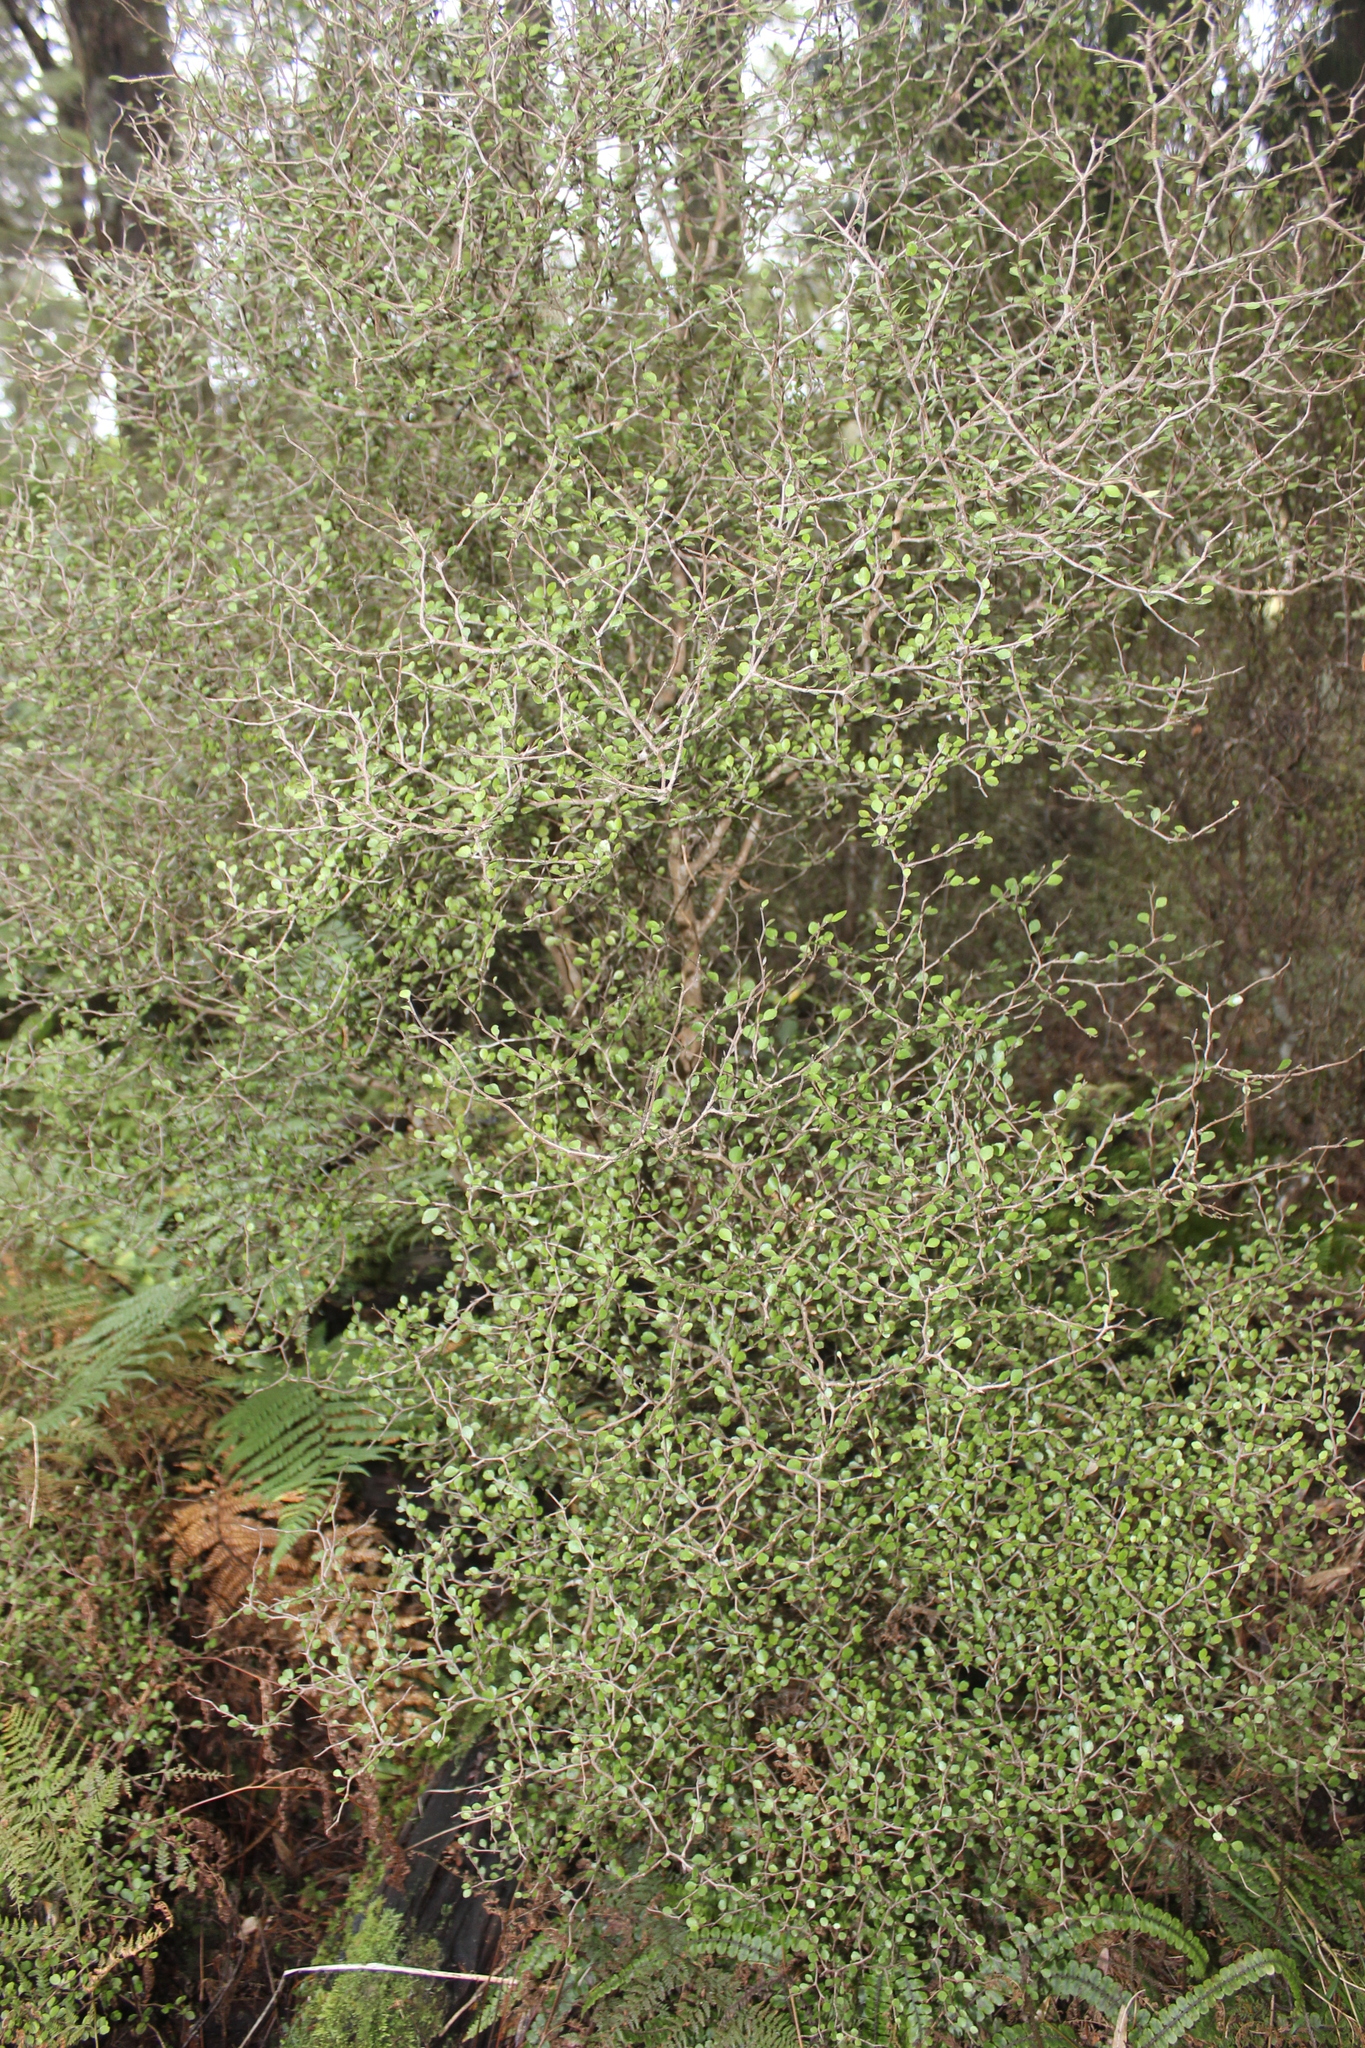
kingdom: Plantae
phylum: Tracheophyta
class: Magnoliopsida
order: Apiales
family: Araliaceae
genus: Raukaua
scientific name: Raukaua anomalus
